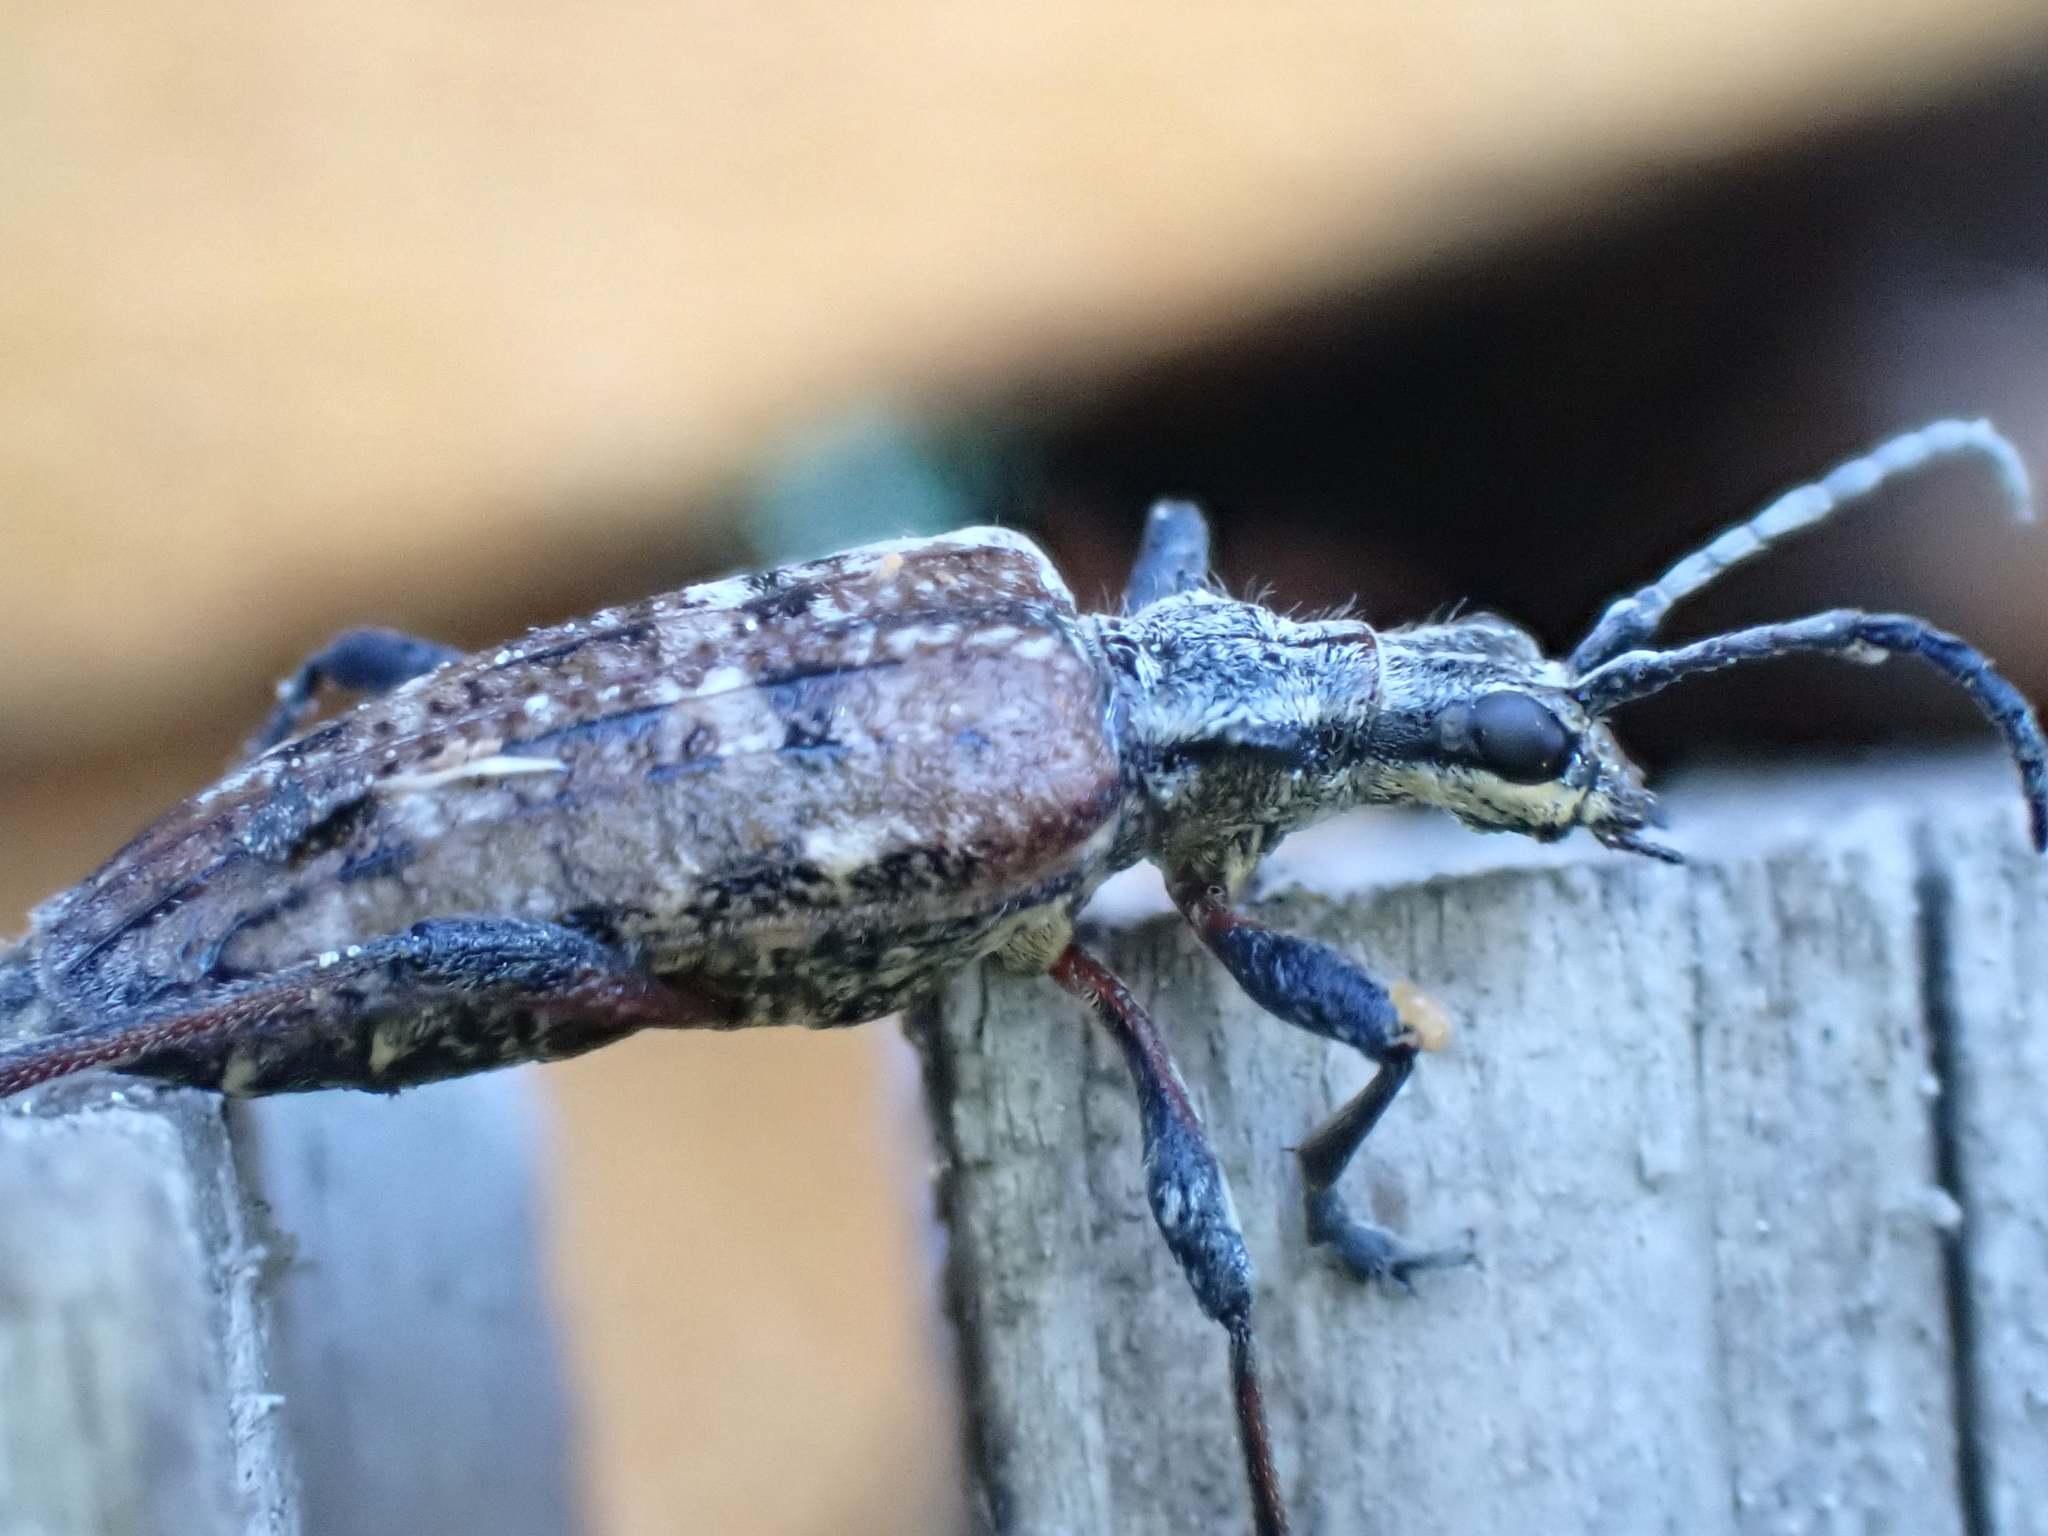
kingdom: Animalia
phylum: Arthropoda
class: Insecta
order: Coleoptera
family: Cerambycidae
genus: Rhagium
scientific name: Rhagium inquisitor
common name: Ribbed pine borer
